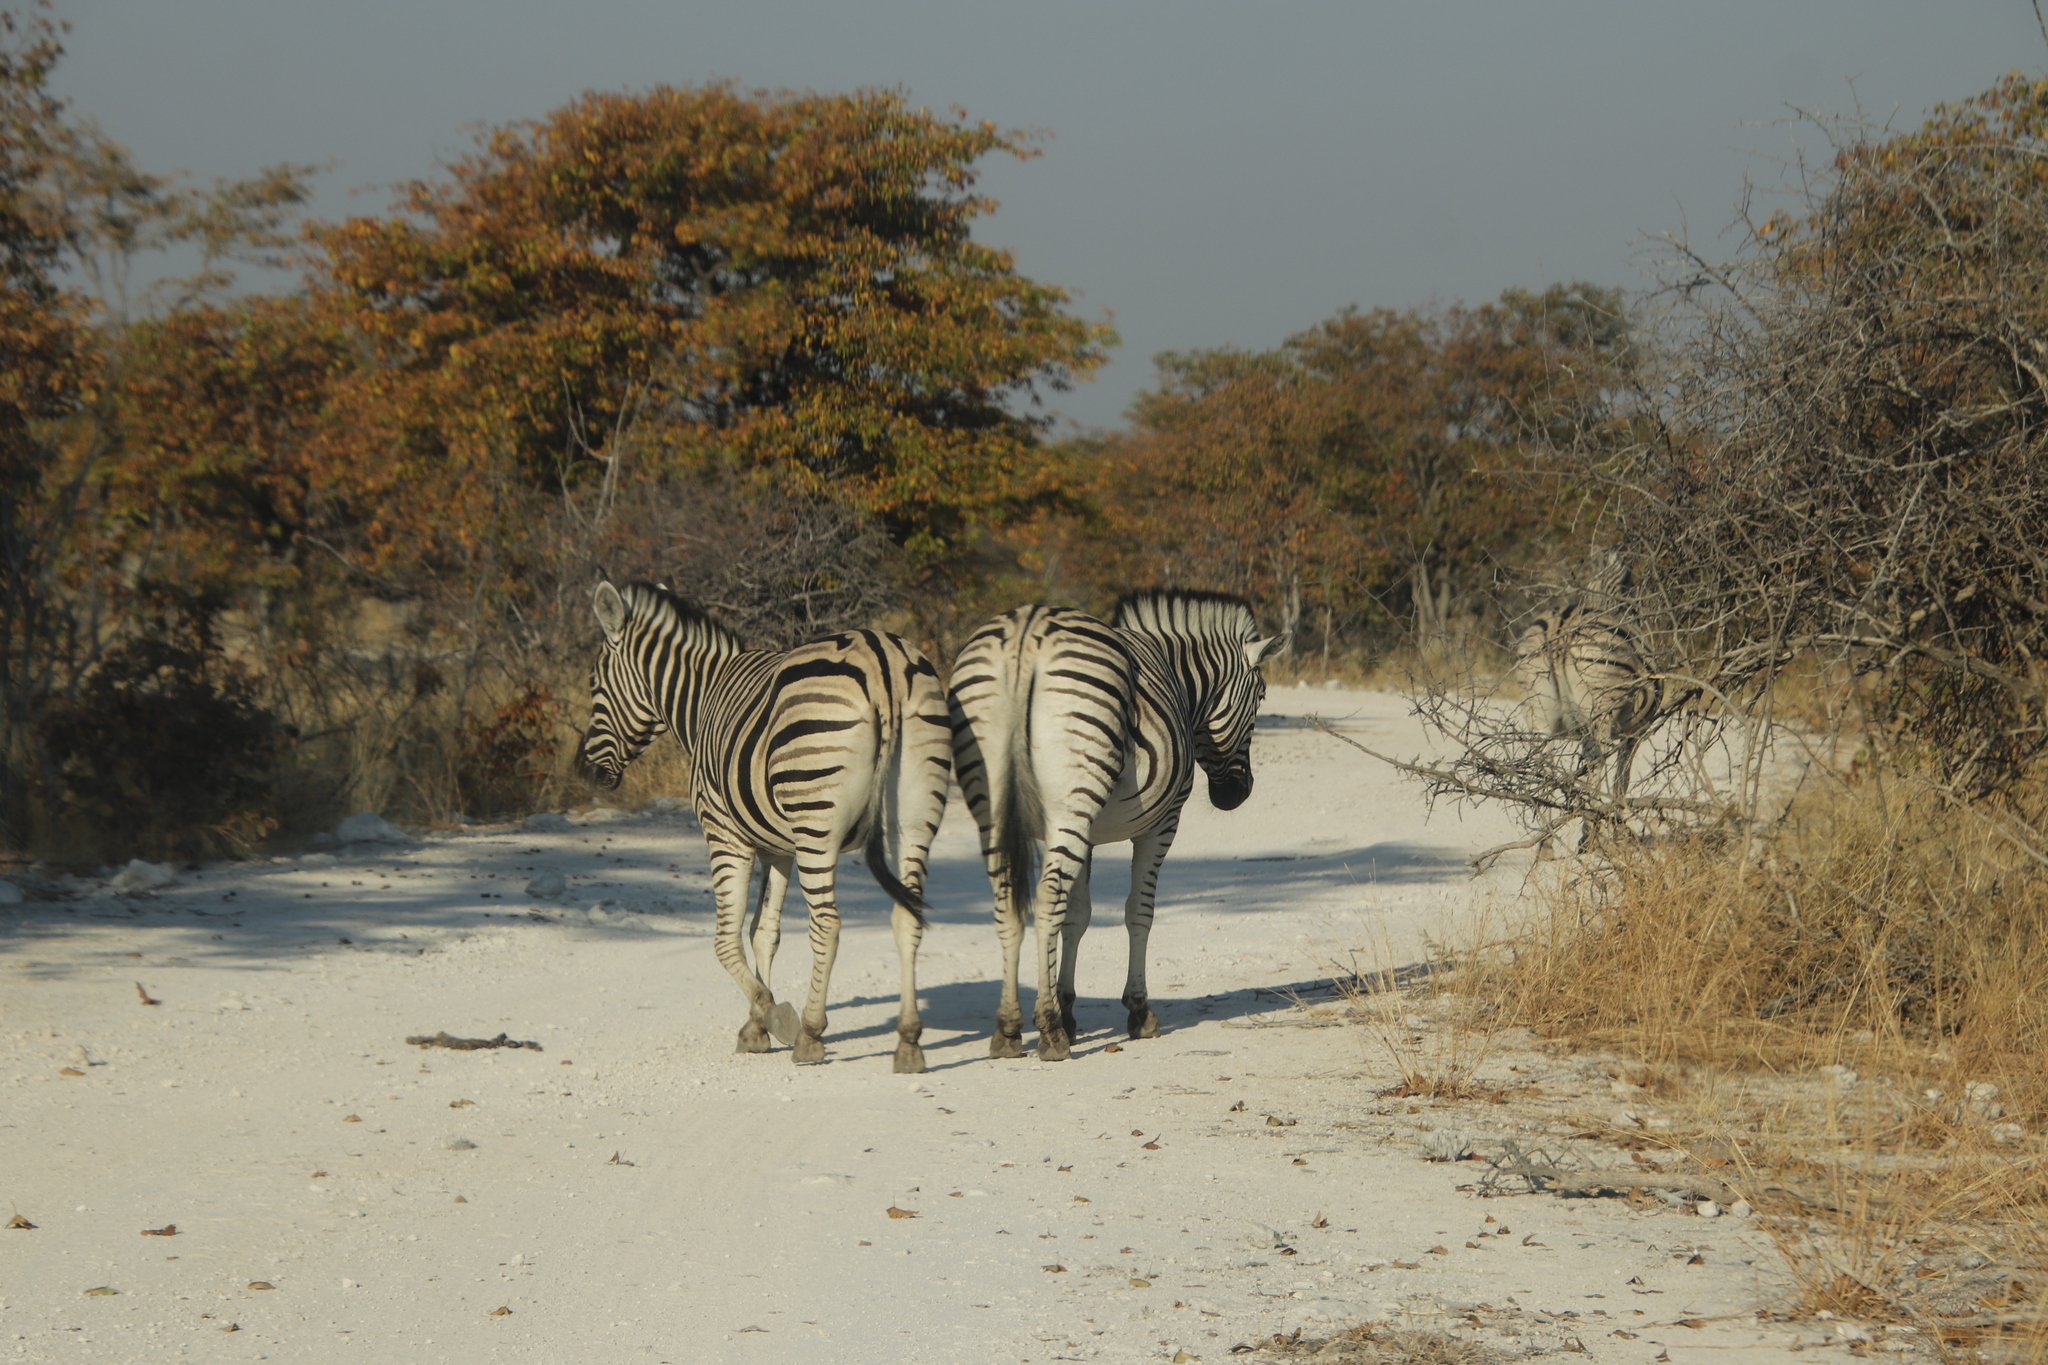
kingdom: Plantae
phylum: Tracheophyta
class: Magnoliopsida
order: Fabales
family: Fabaceae
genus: Colophospermum
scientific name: Colophospermum mopane
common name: Mopane
